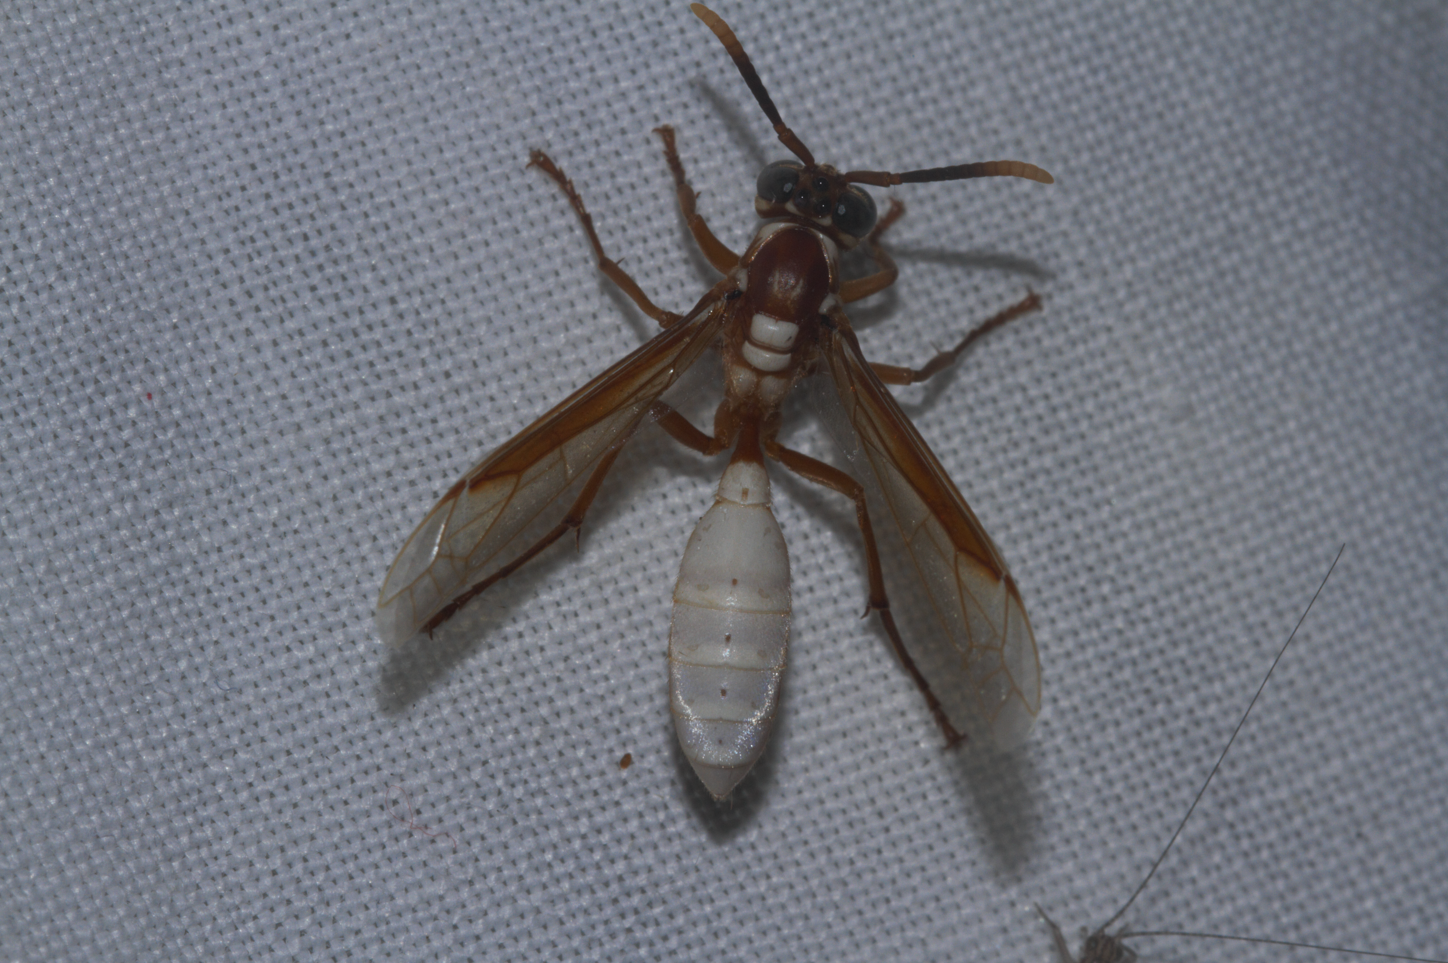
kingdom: Animalia
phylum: Arthropoda
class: Insecta
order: Hymenoptera
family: Vespidae
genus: Apoica
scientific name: Apoica gelida
